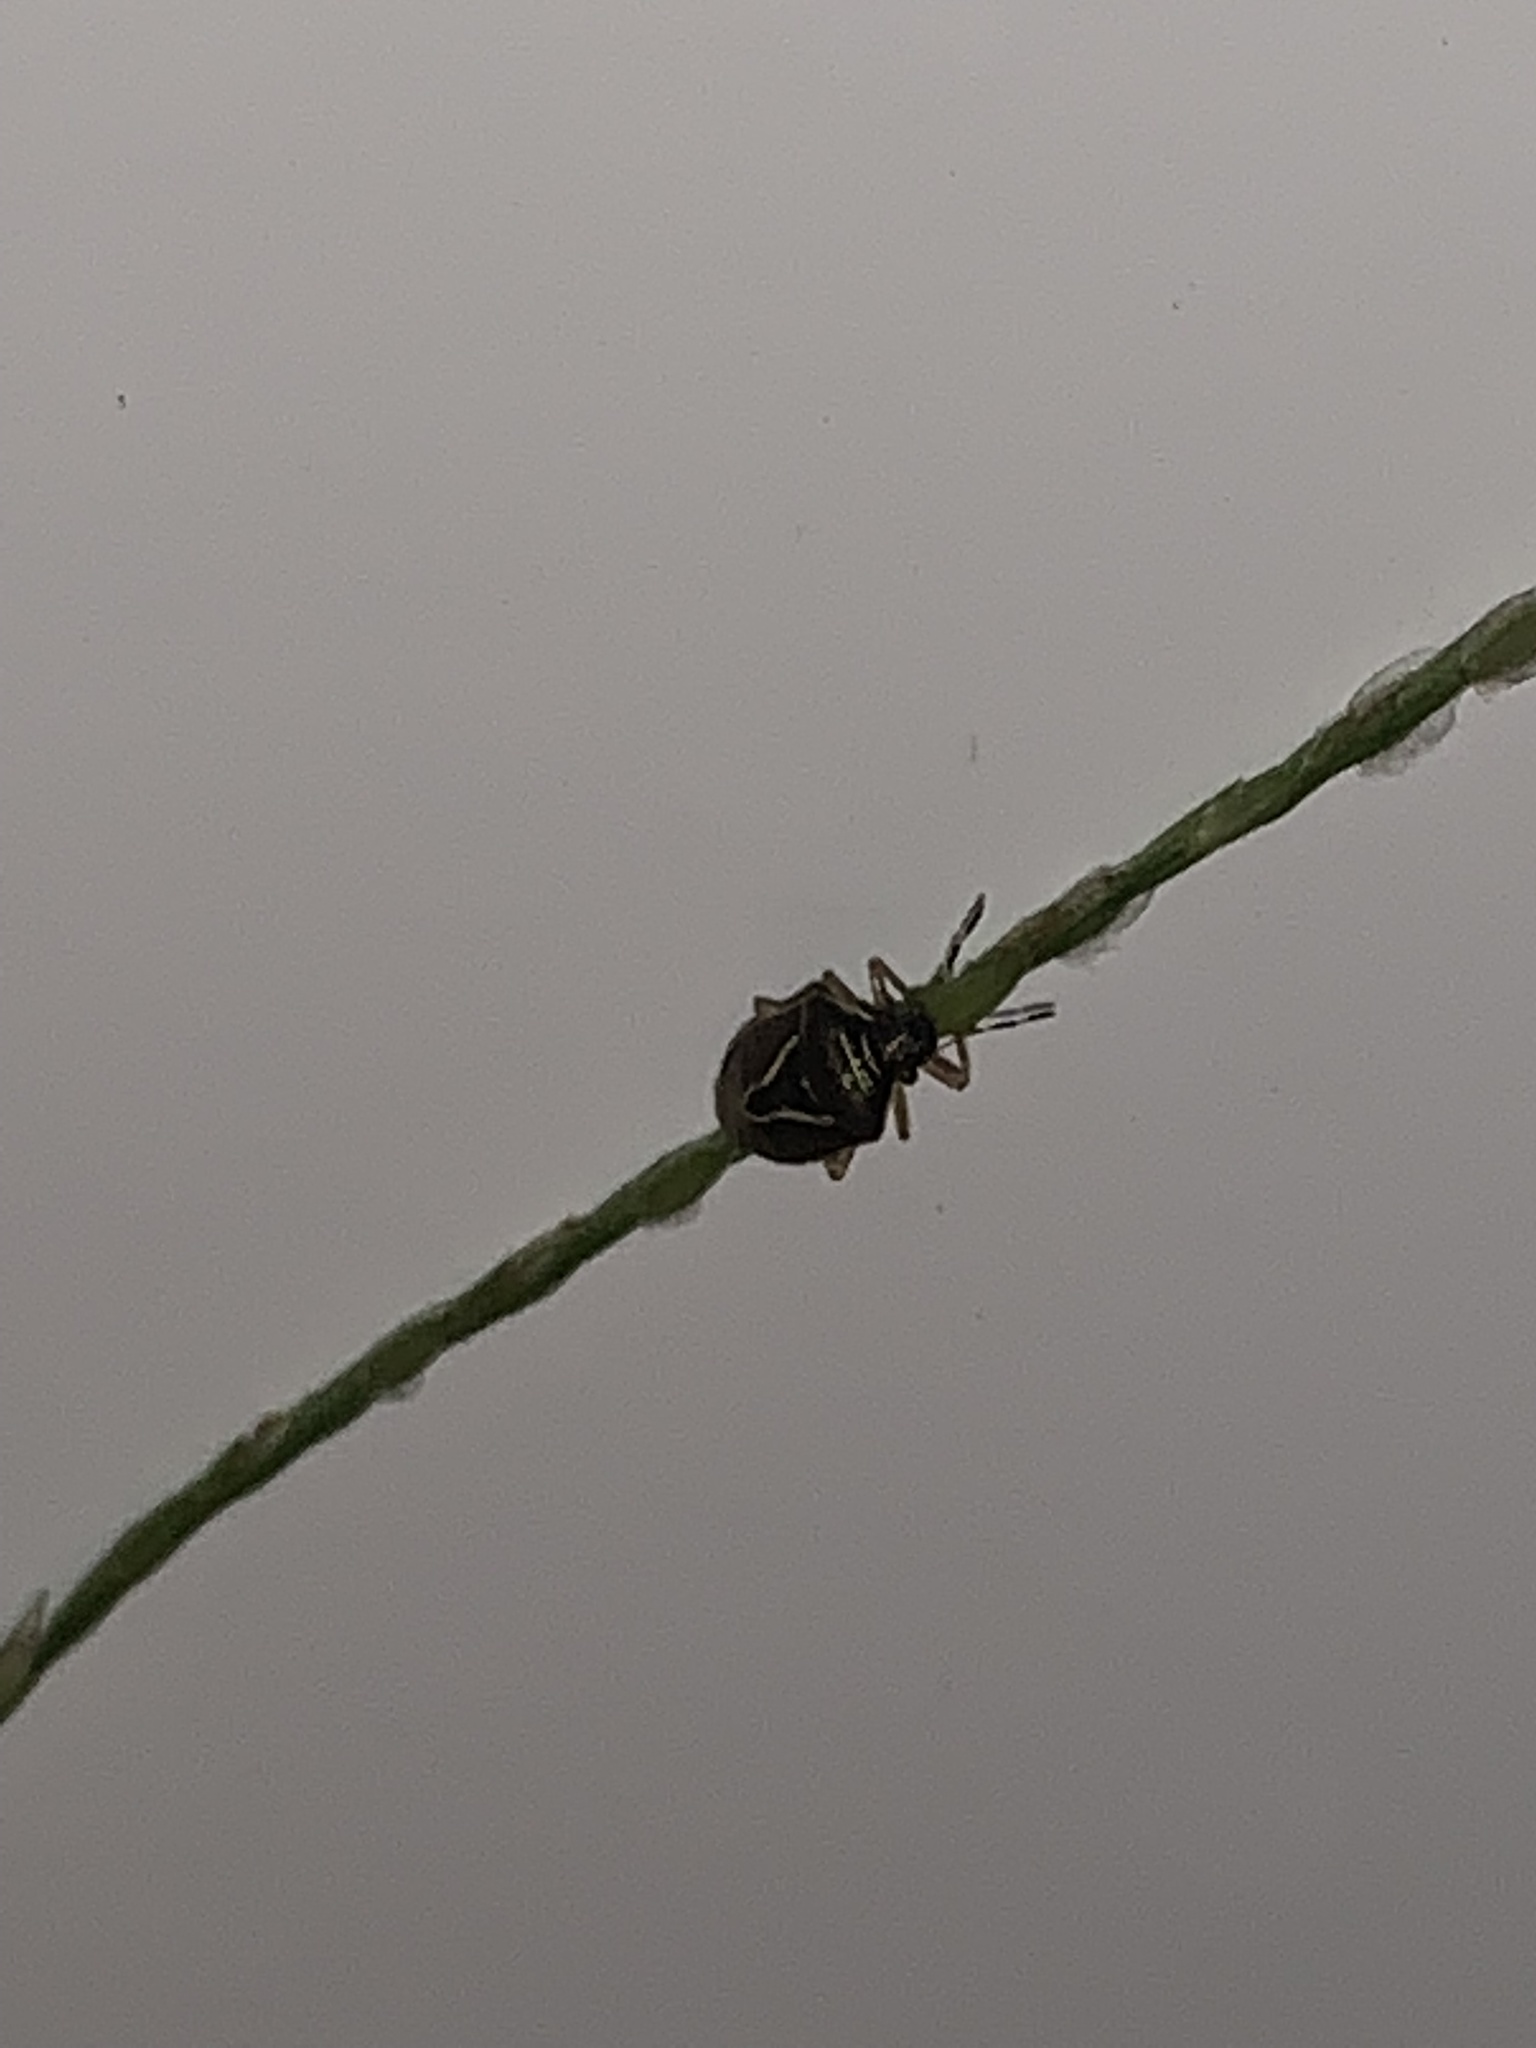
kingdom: Animalia
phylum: Arthropoda
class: Insecta
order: Hemiptera
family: Pentatomidae
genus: Mormidea
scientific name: Mormidea lugens
